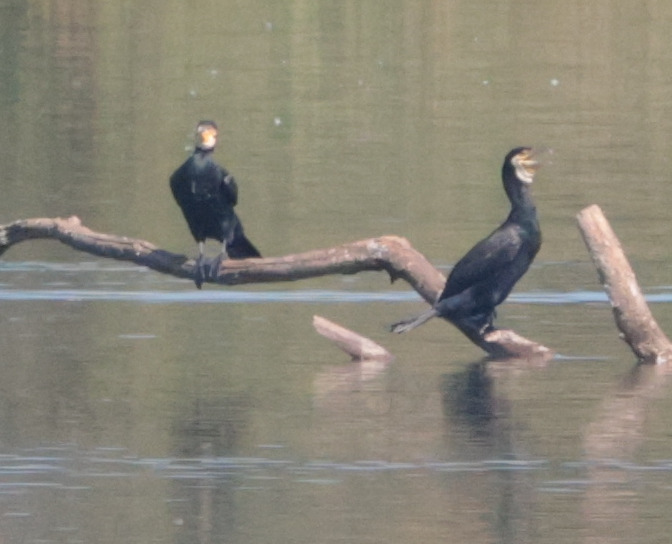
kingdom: Animalia
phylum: Chordata
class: Aves
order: Suliformes
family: Phalacrocoracidae
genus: Phalacrocorax
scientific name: Phalacrocorax carbo
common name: Great cormorant
